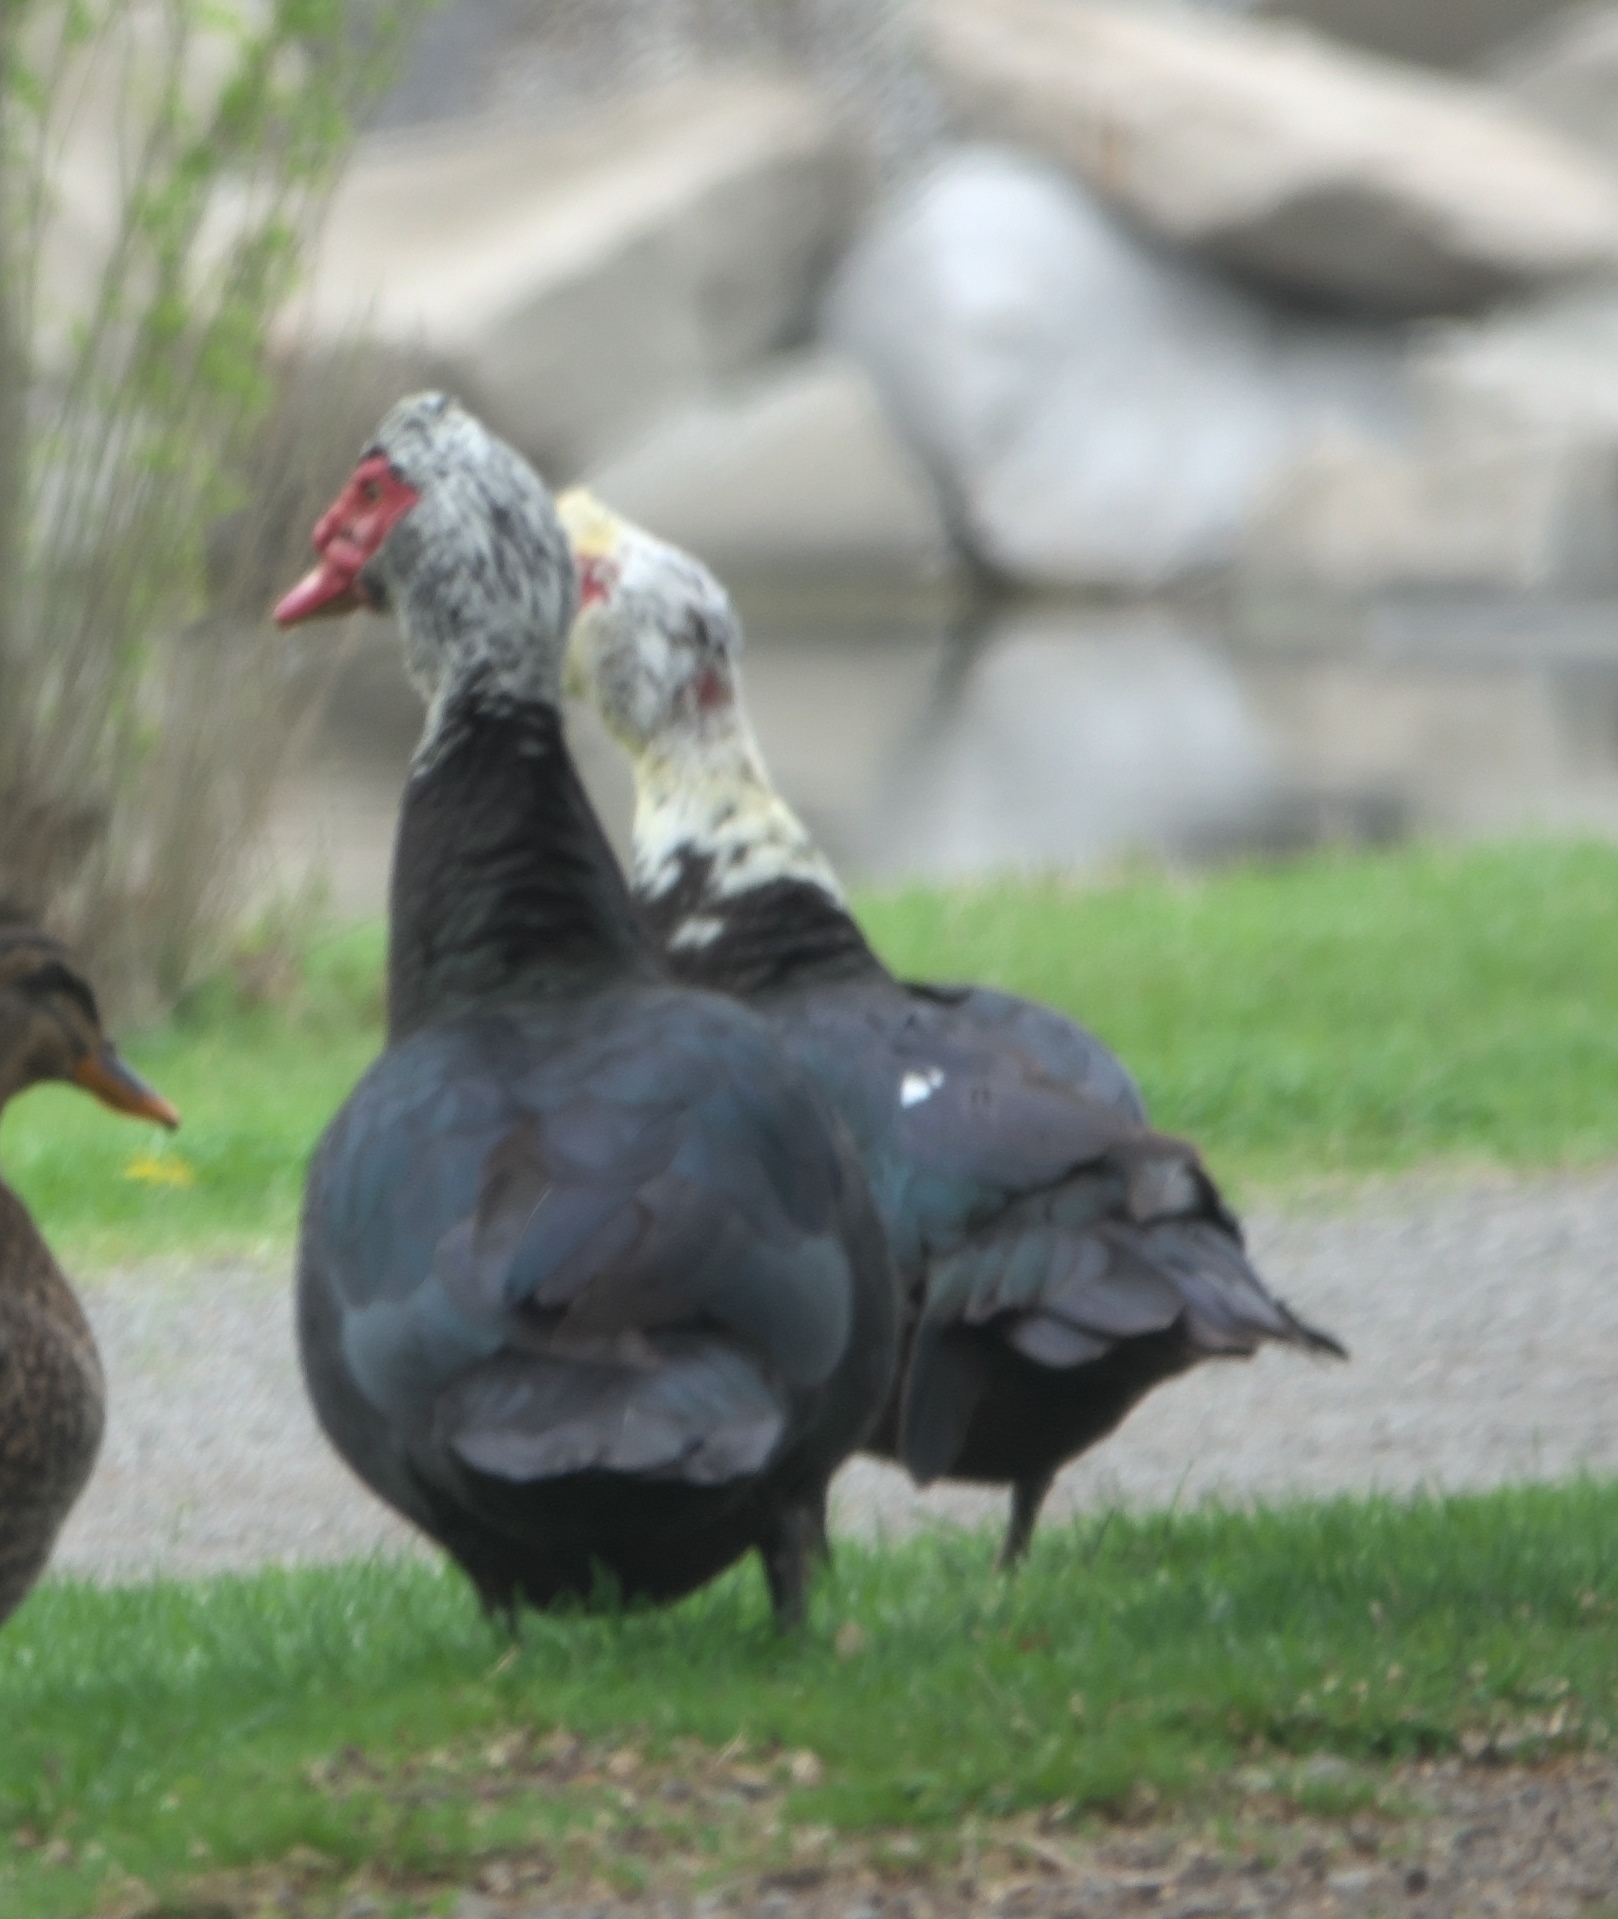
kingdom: Animalia
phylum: Chordata
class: Aves
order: Anseriformes
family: Anatidae
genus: Cairina
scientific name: Cairina moschata
